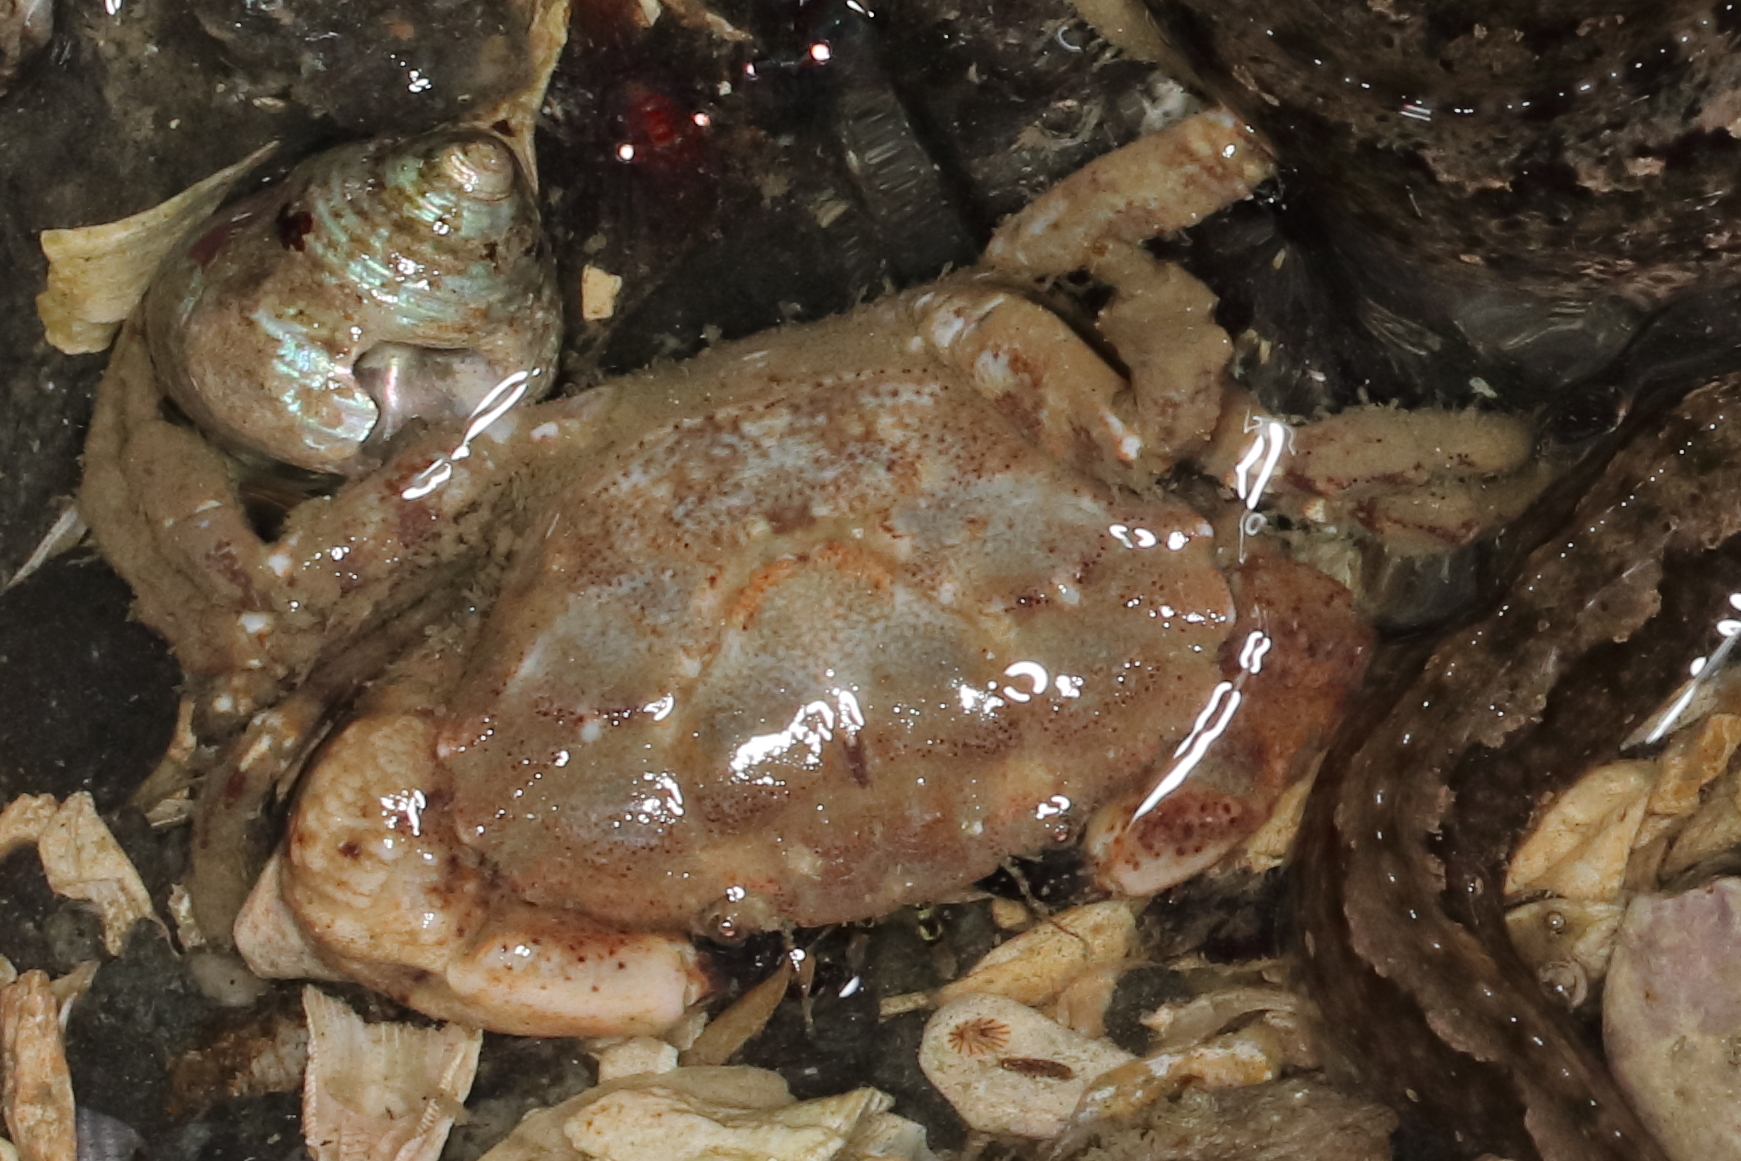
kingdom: Animalia
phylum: Arthropoda
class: Malacostraca
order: Decapoda
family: Panopeidae
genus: Lophopanopeus
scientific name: Lophopanopeus bellus
